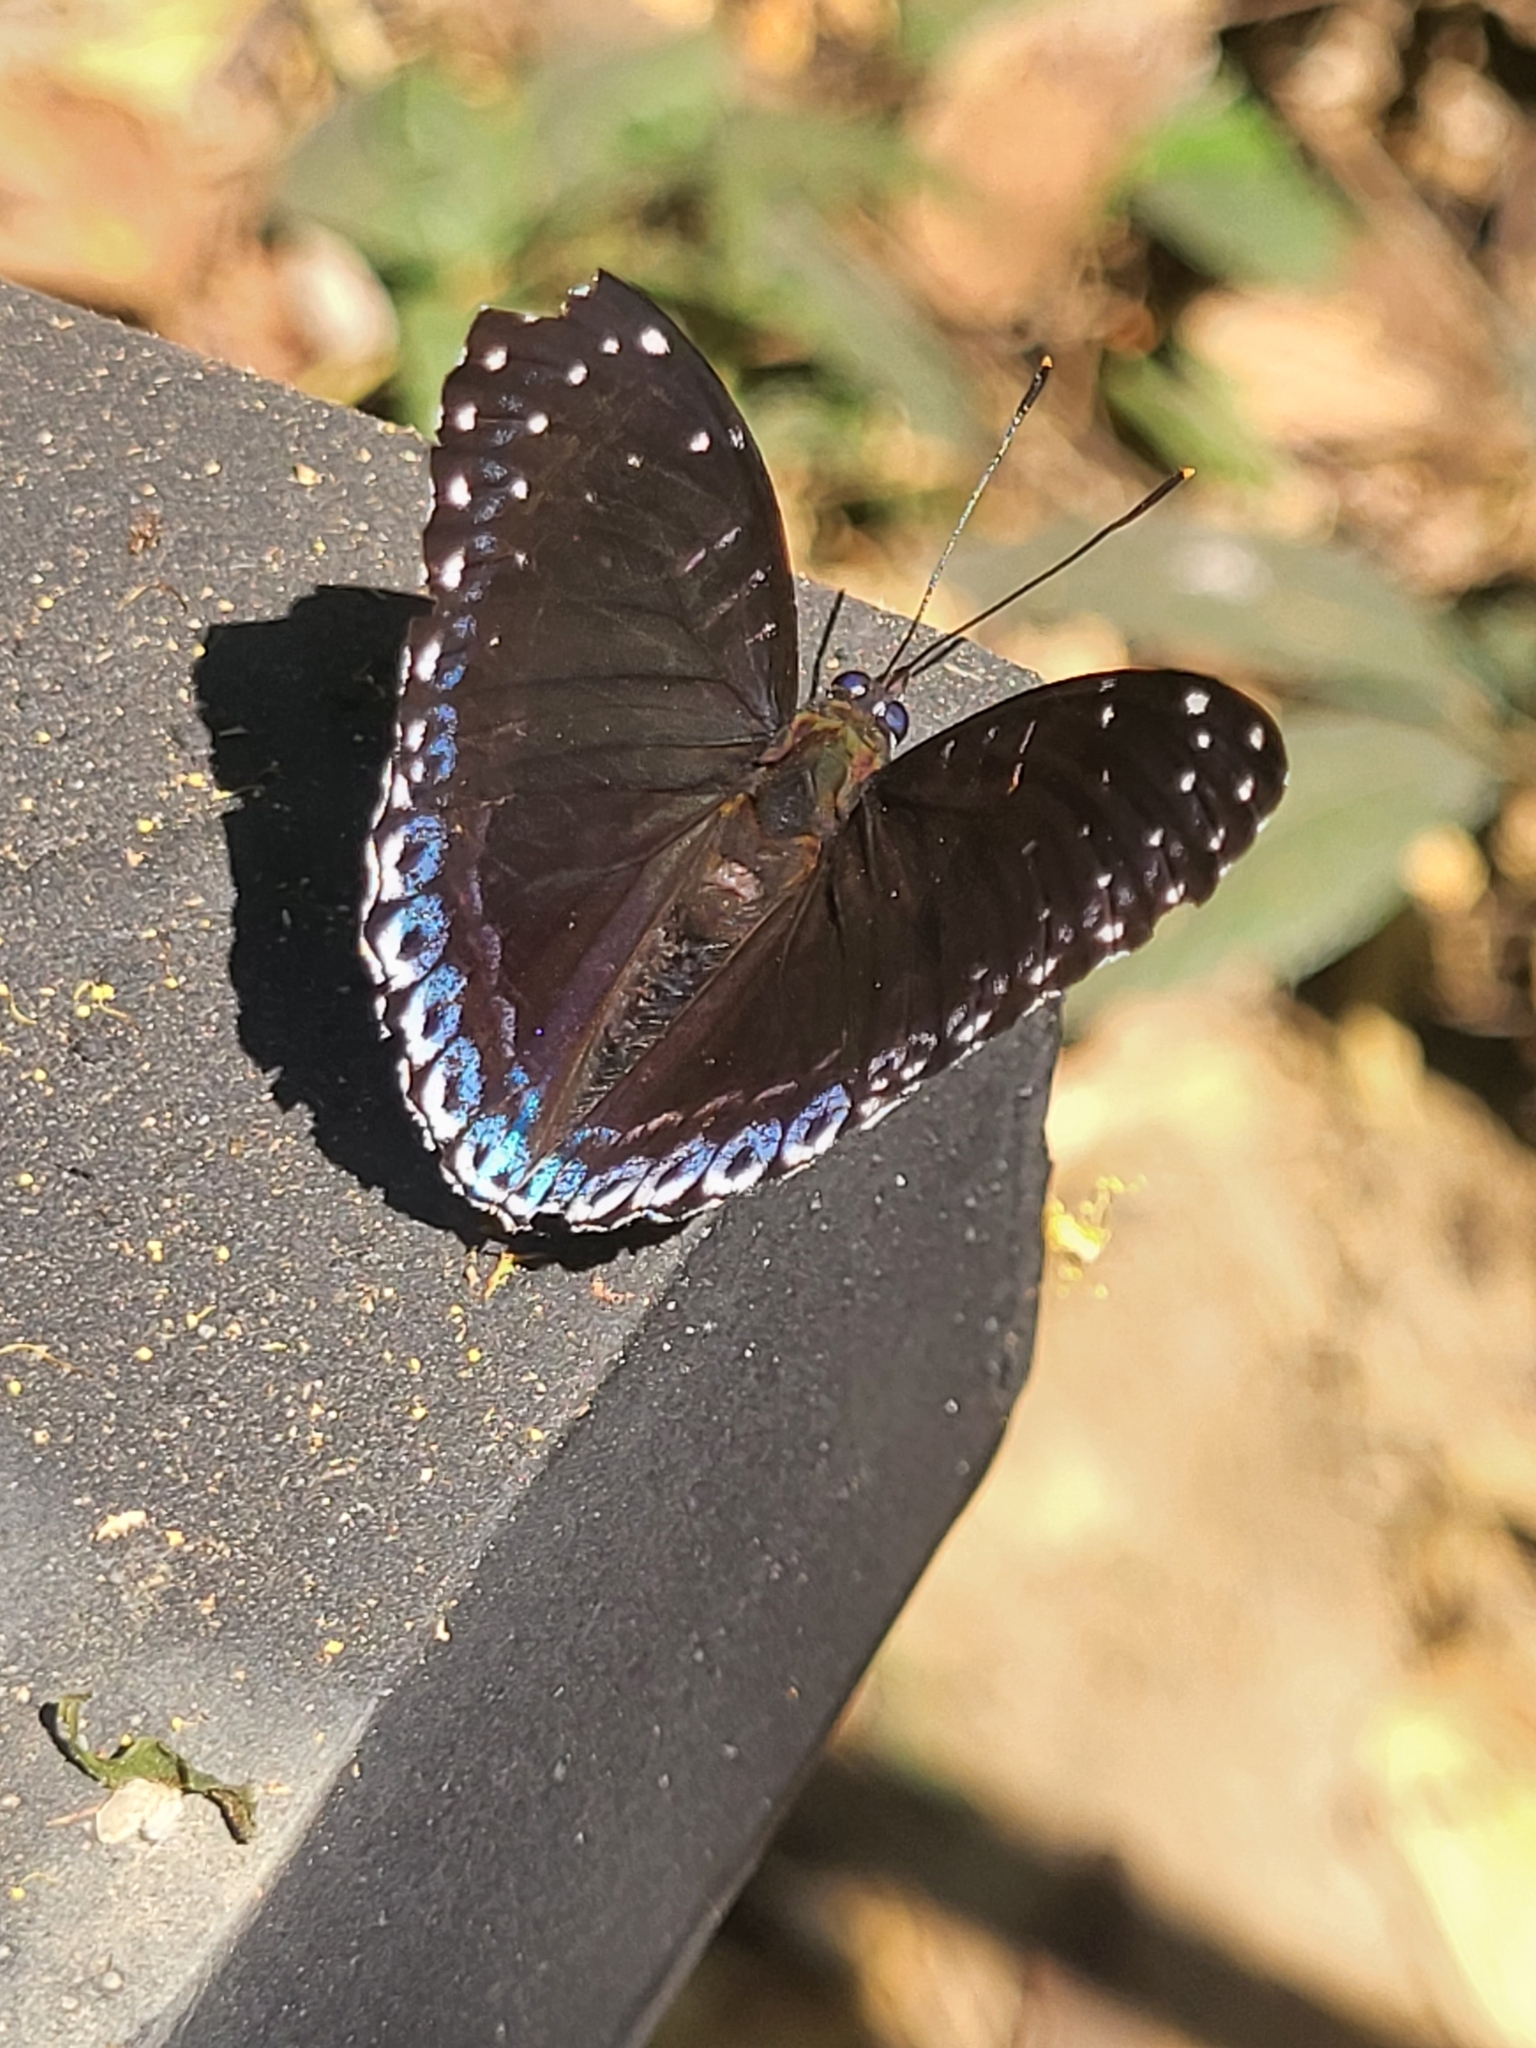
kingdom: Animalia
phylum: Arthropoda
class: Insecta
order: Lepidoptera
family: Nymphalidae
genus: Stibochiona
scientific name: Stibochiona nicea
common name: Popinjay
